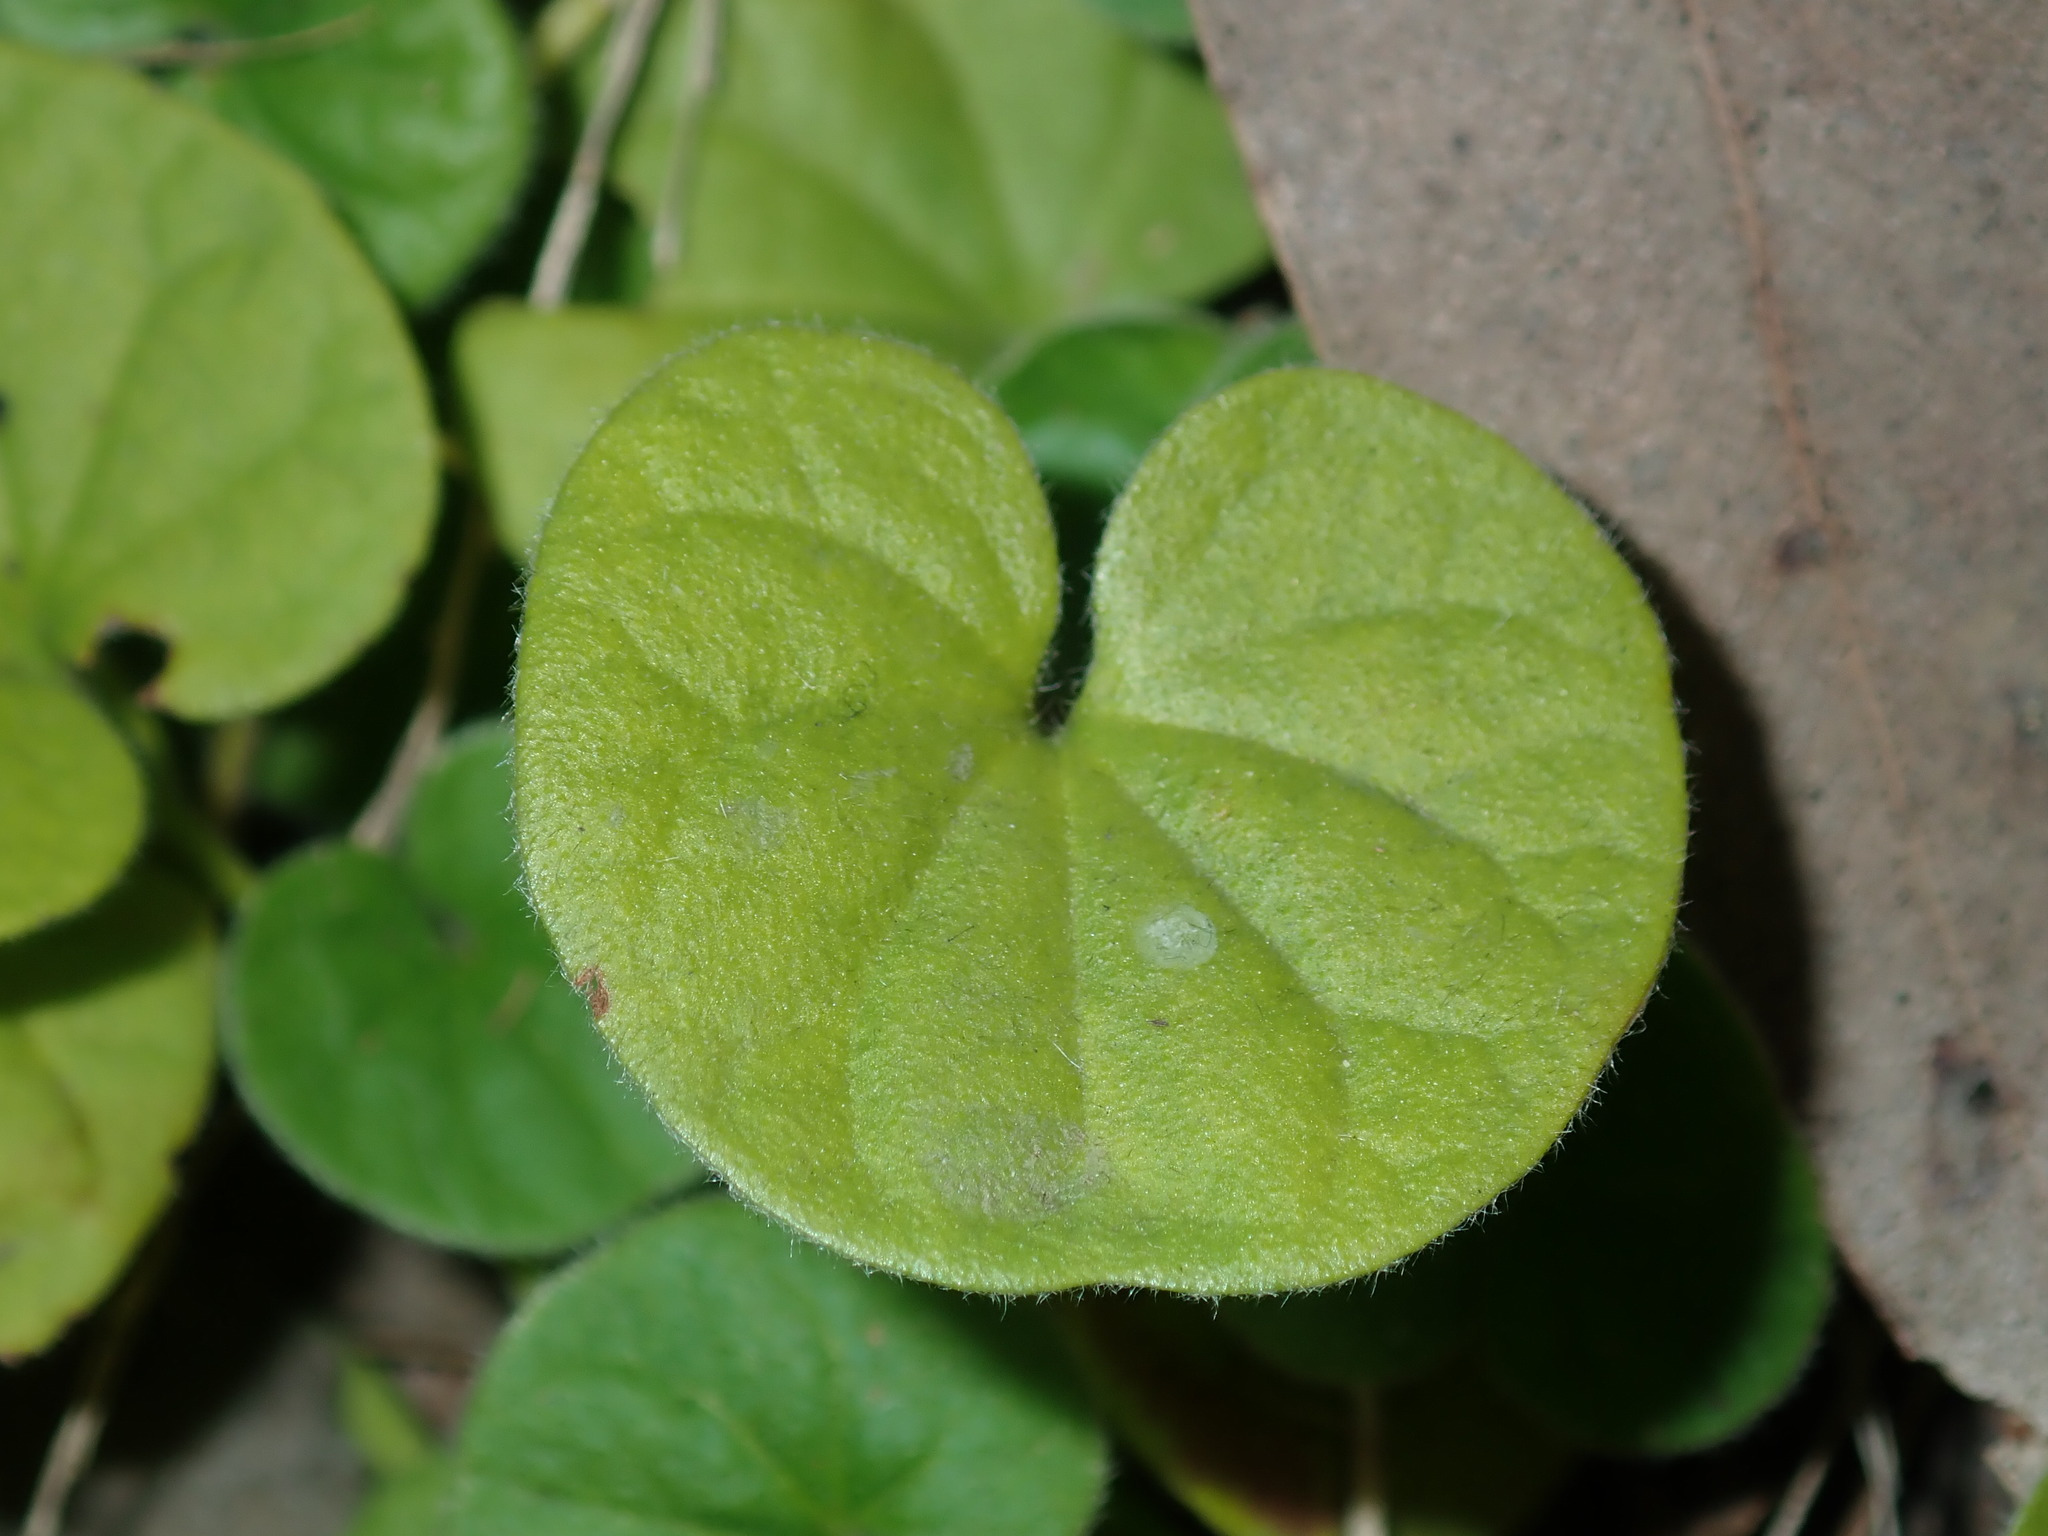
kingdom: Plantae
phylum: Tracheophyta
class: Magnoliopsida
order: Solanales
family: Convolvulaceae
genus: Dichondra
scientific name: Dichondra repens
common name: Kidneyweed
